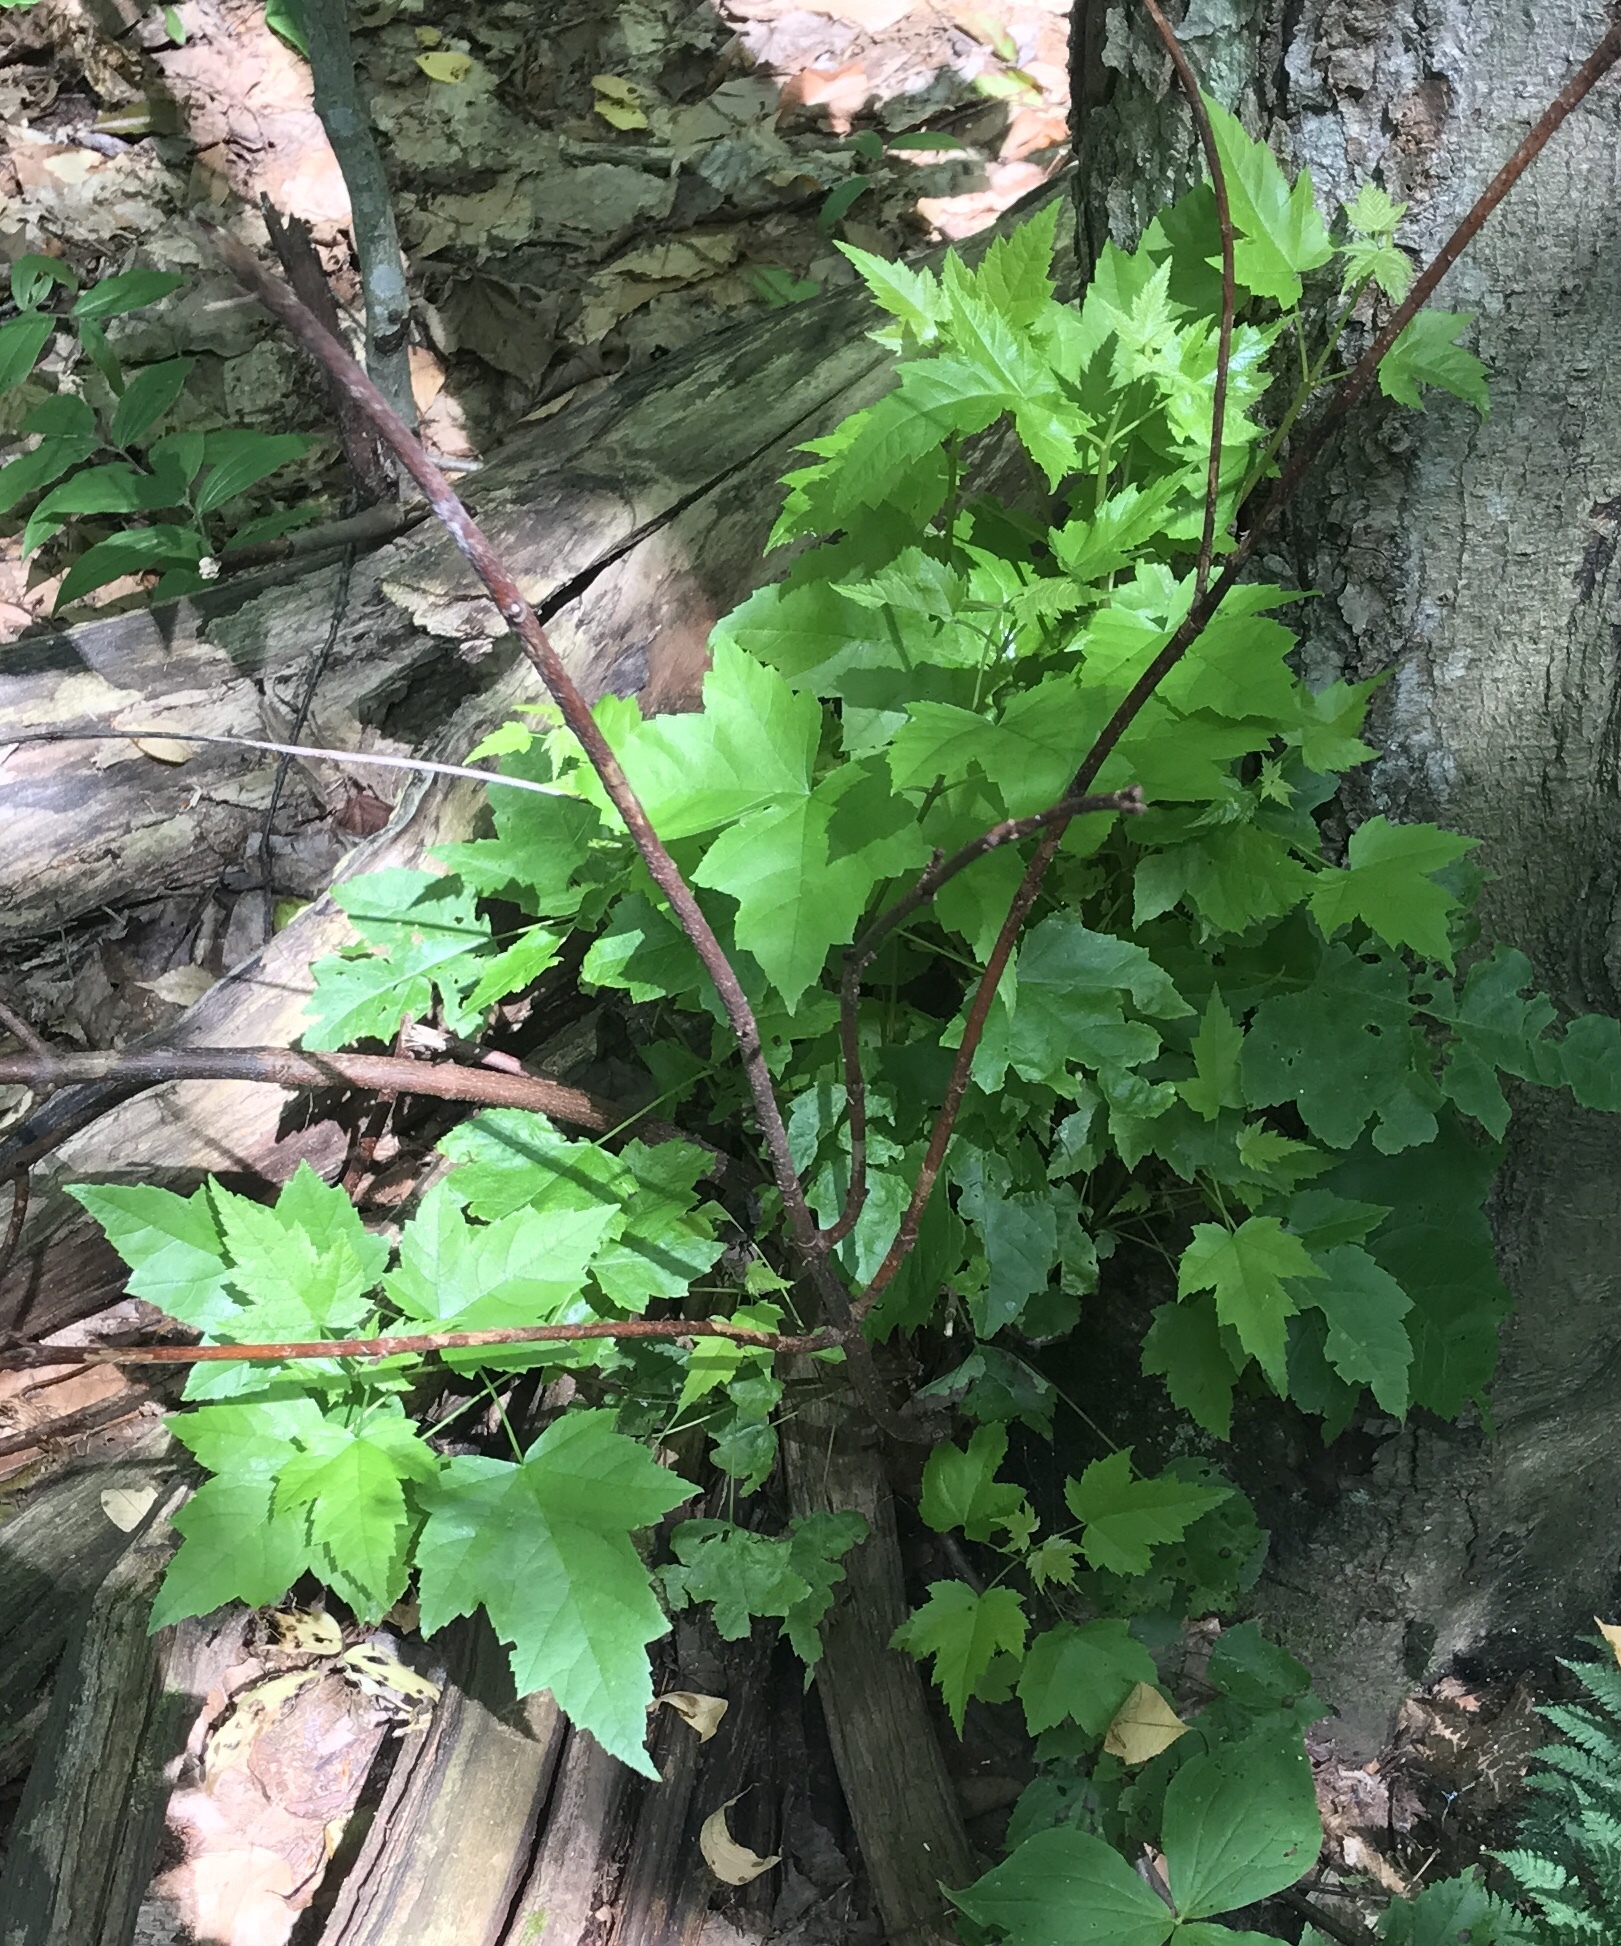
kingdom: Plantae
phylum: Tracheophyta
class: Magnoliopsida
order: Sapindales
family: Sapindaceae
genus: Acer
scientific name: Acer rubrum
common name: Red maple
